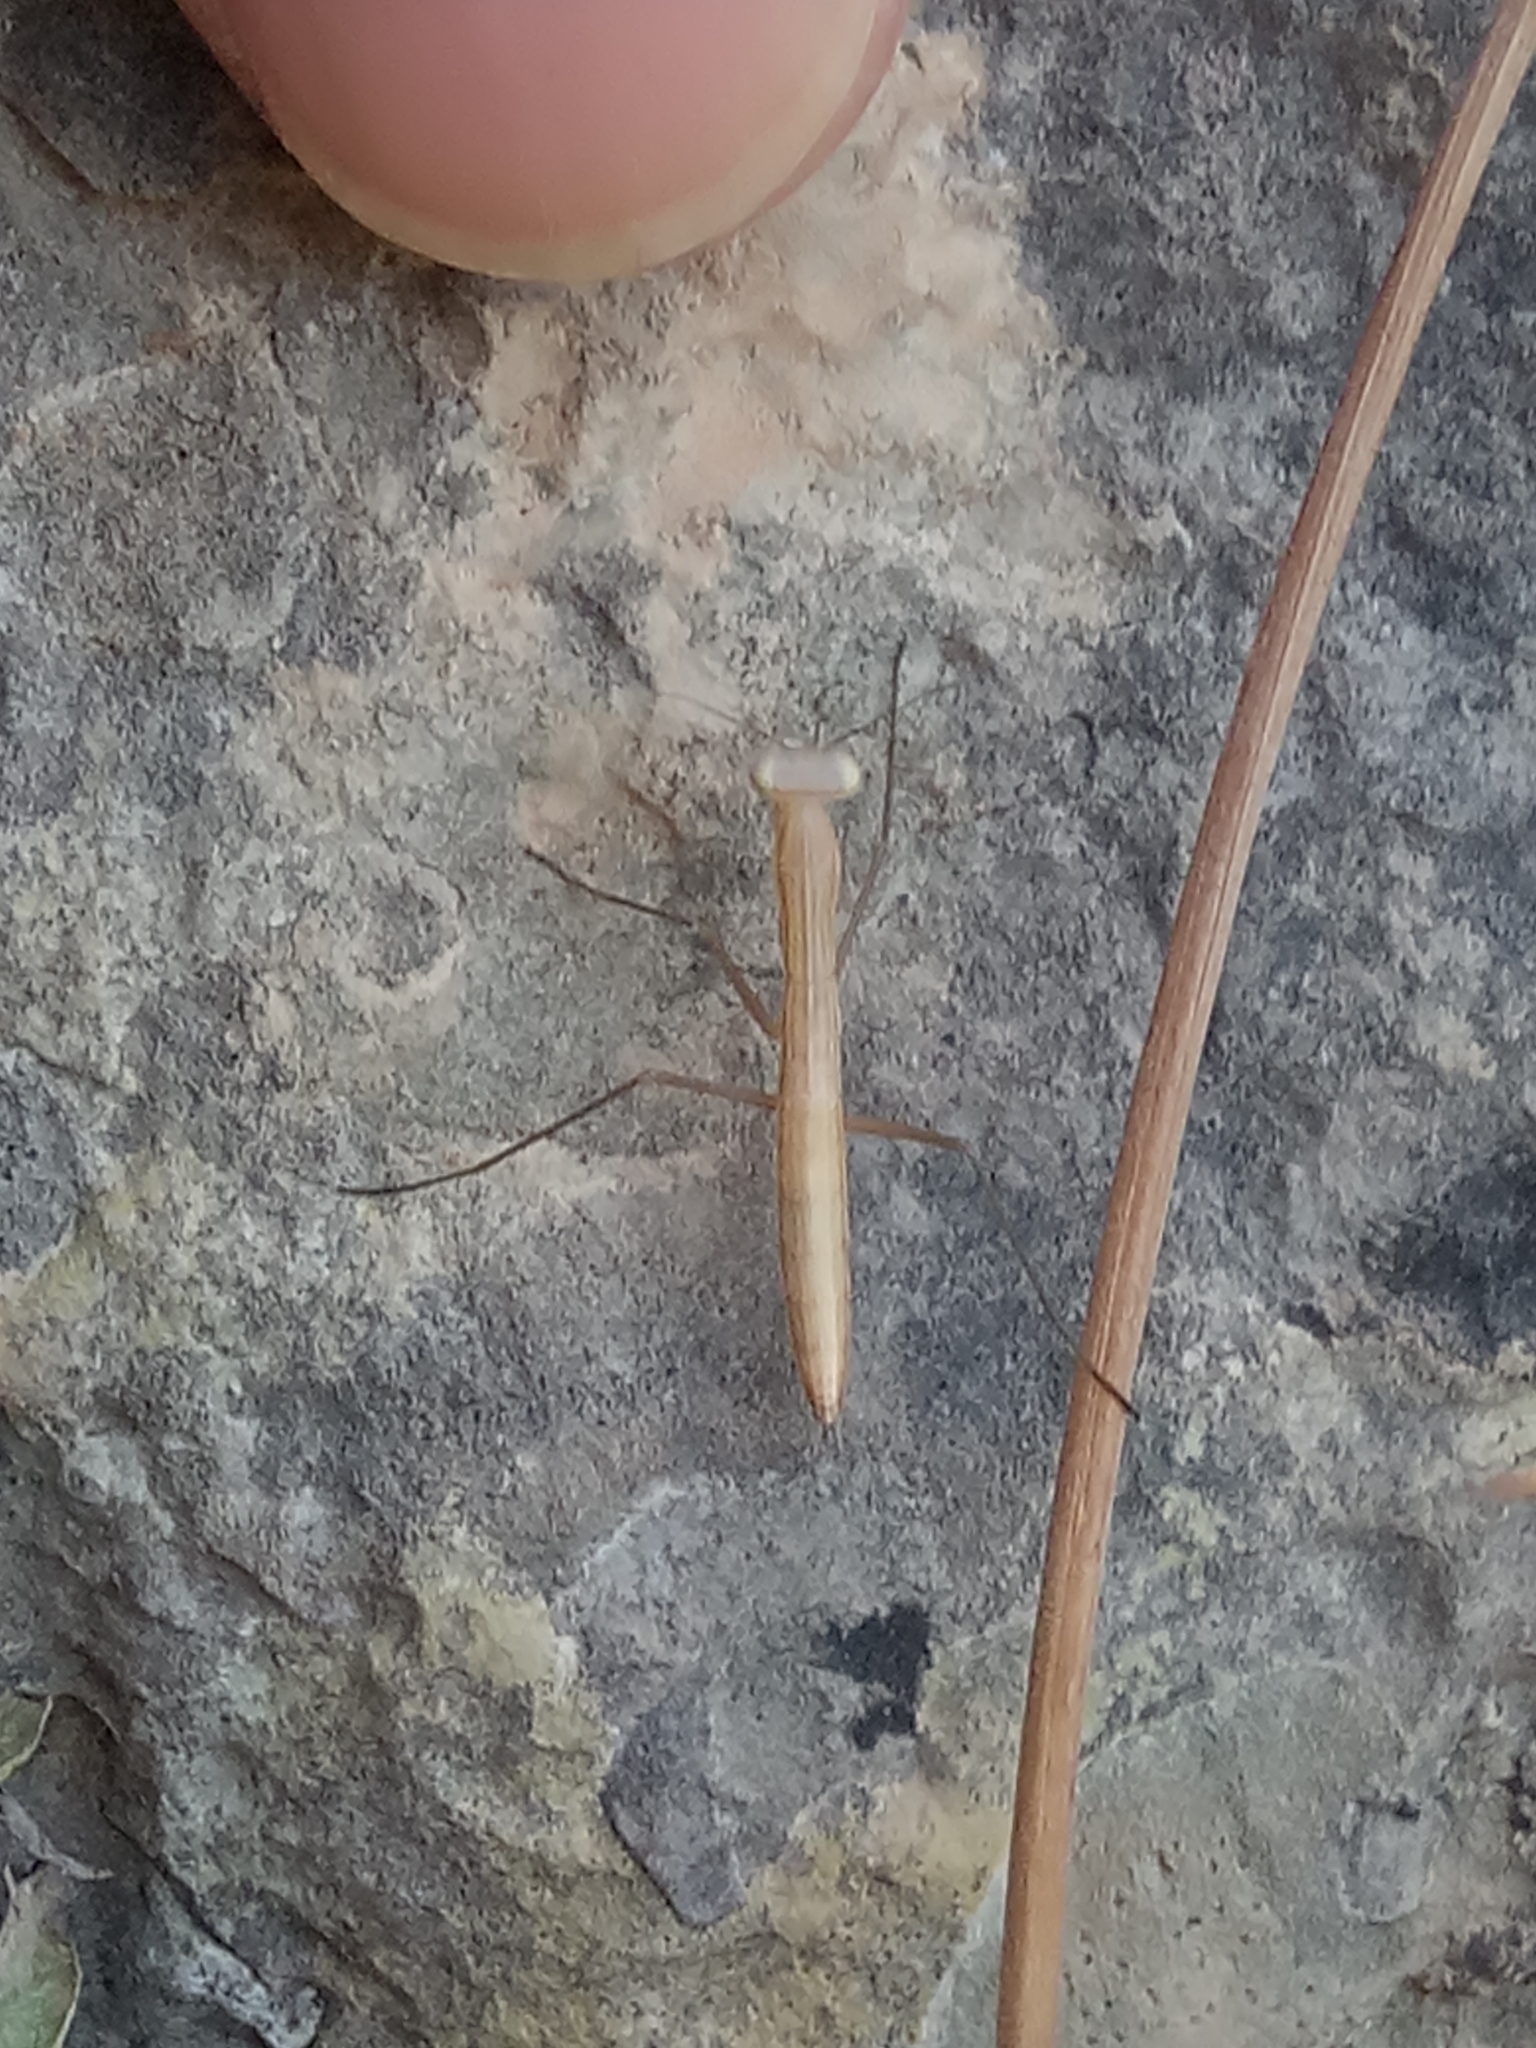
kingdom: Animalia
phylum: Arthropoda
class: Insecta
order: Mantodea
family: Mantidae
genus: Mantis
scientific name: Mantis religiosa
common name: Praying mantis
